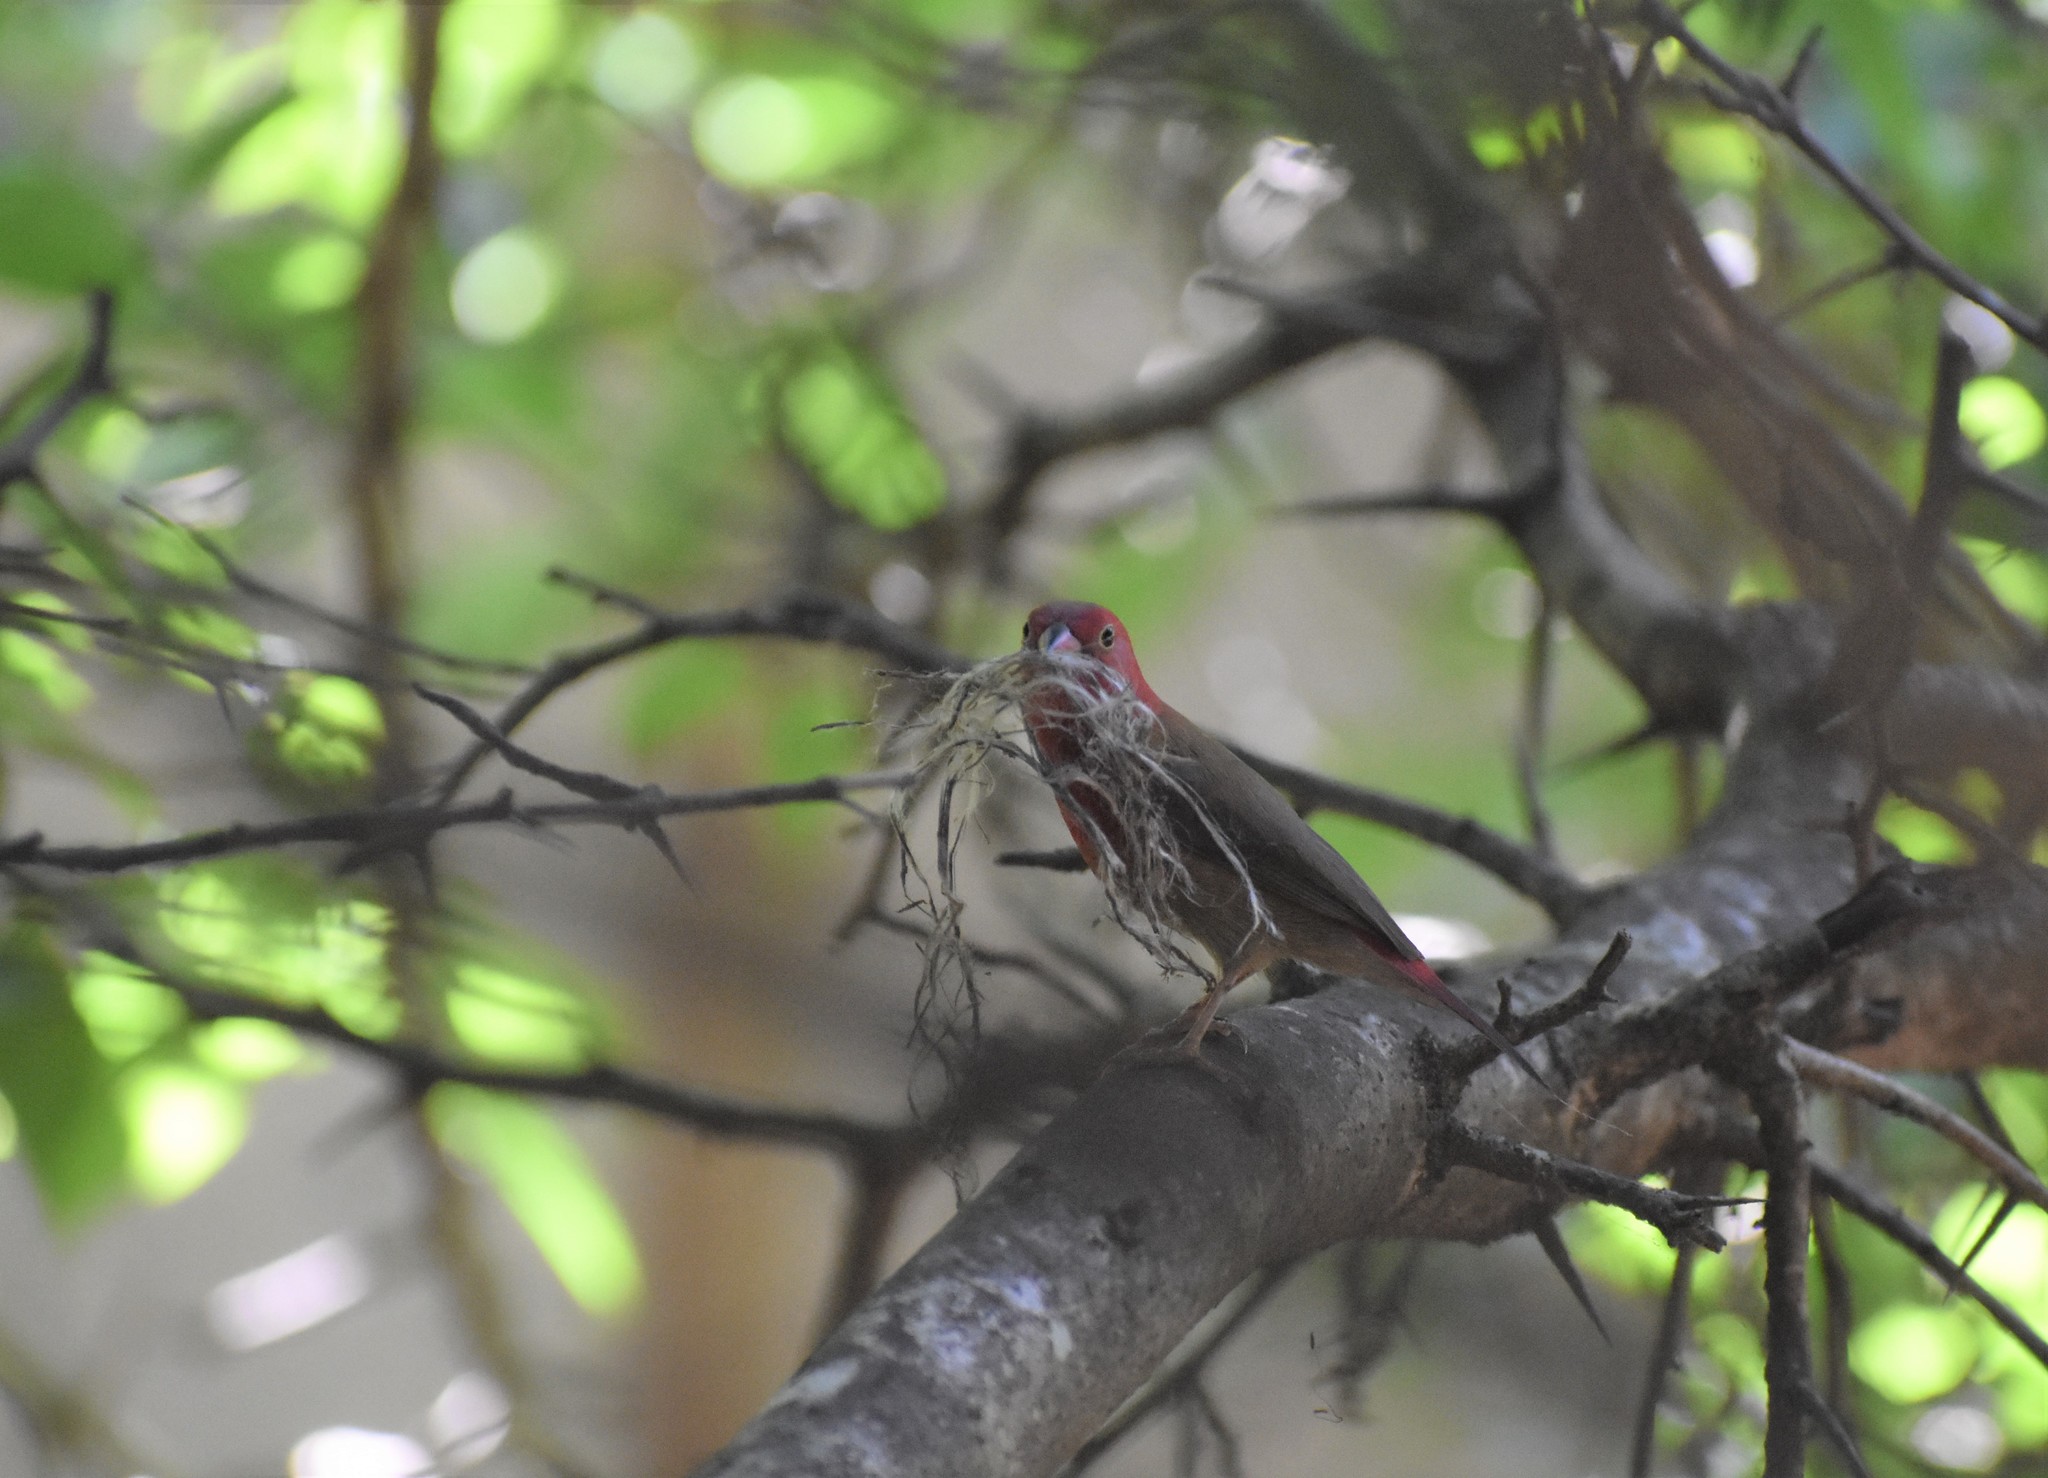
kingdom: Animalia
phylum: Chordata
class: Aves
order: Passeriformes
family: Estrildidae
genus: Lagonosticta
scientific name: Lagonosticta senegala
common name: Red-billed firefinch
